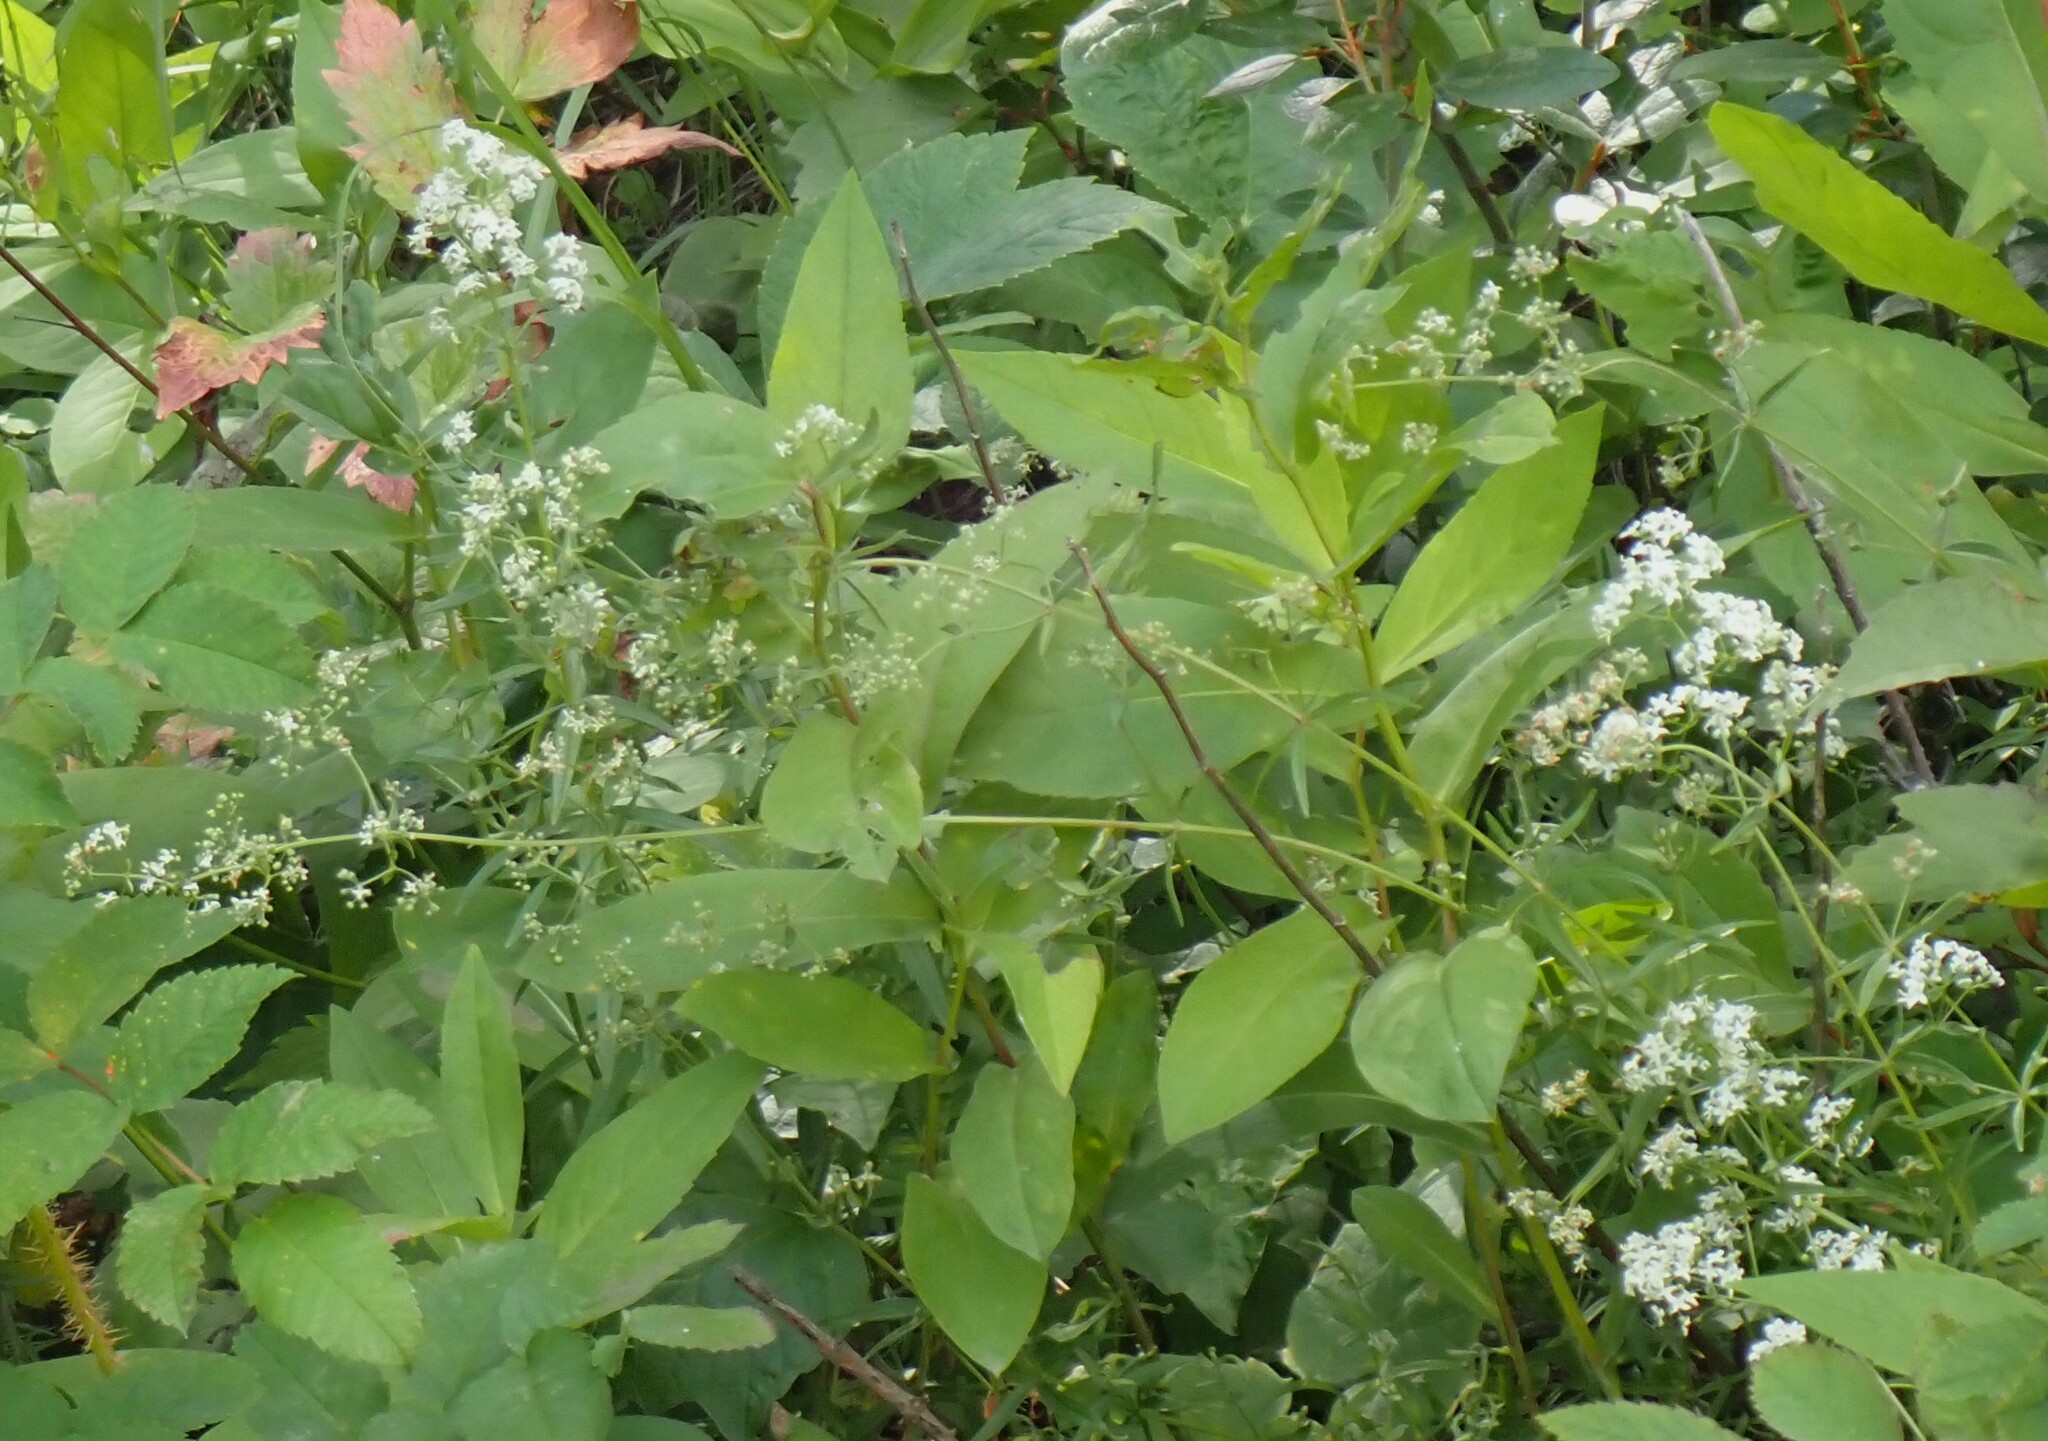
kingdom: Plantae
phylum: Tracheophyta
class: Magnoliopsida
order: Gentianales
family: Rubiaceae
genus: Galium
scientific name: Galium boreale
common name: Northern bedstraw
